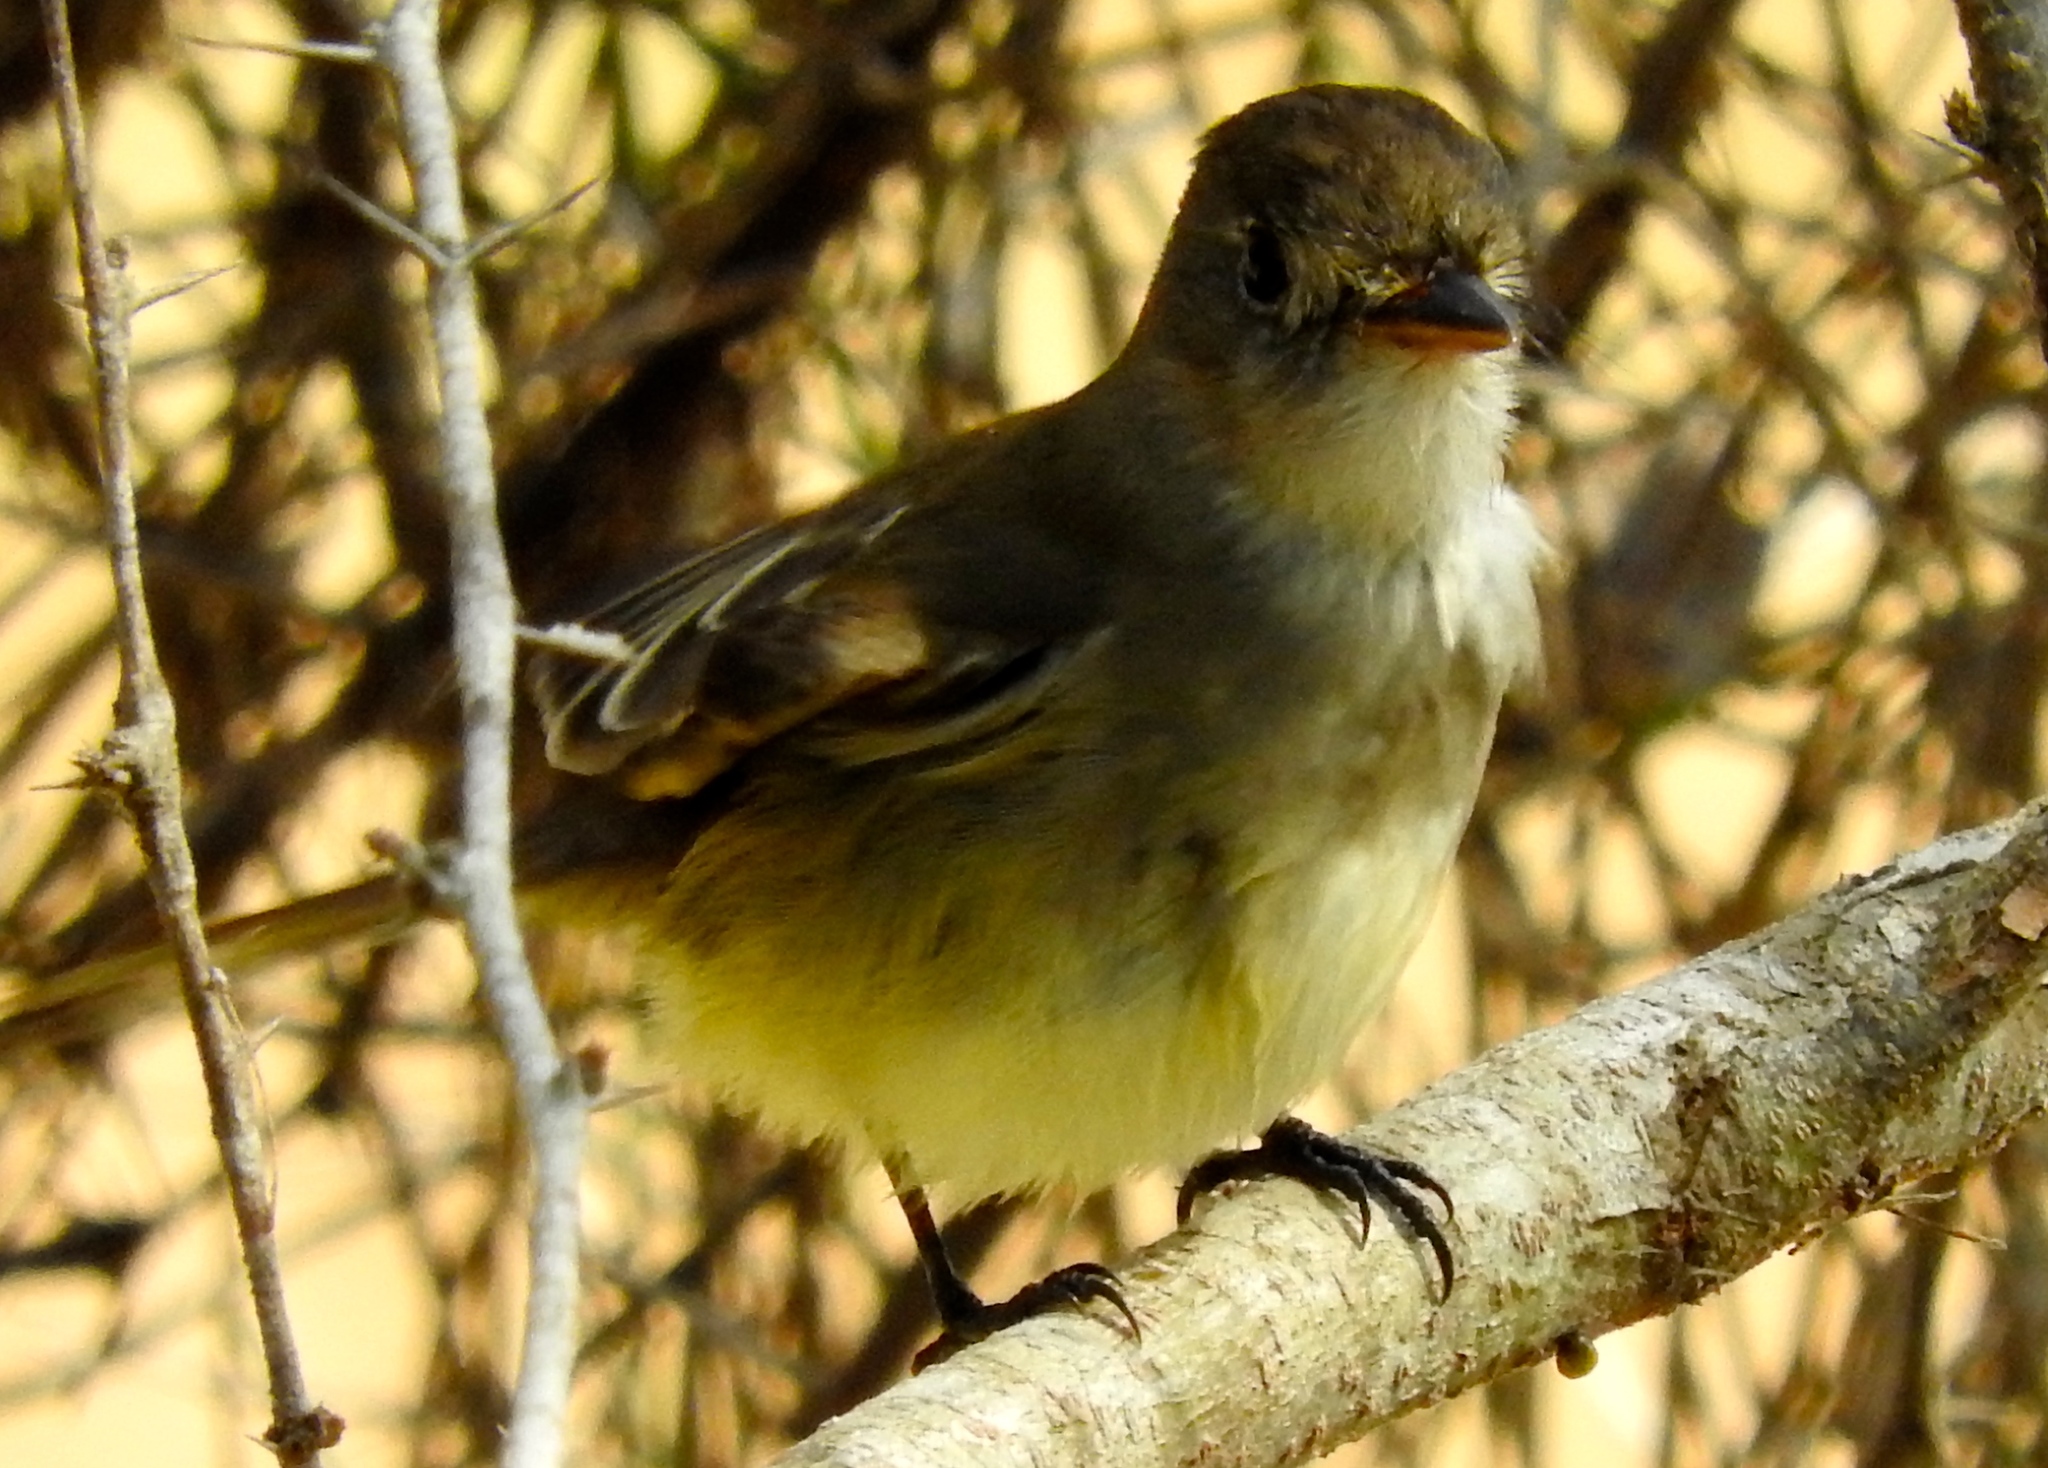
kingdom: Animalia
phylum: Chordata
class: Aves
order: Passeriformes
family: Tyrannidae
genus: Myiarchus
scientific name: Myiarchus
